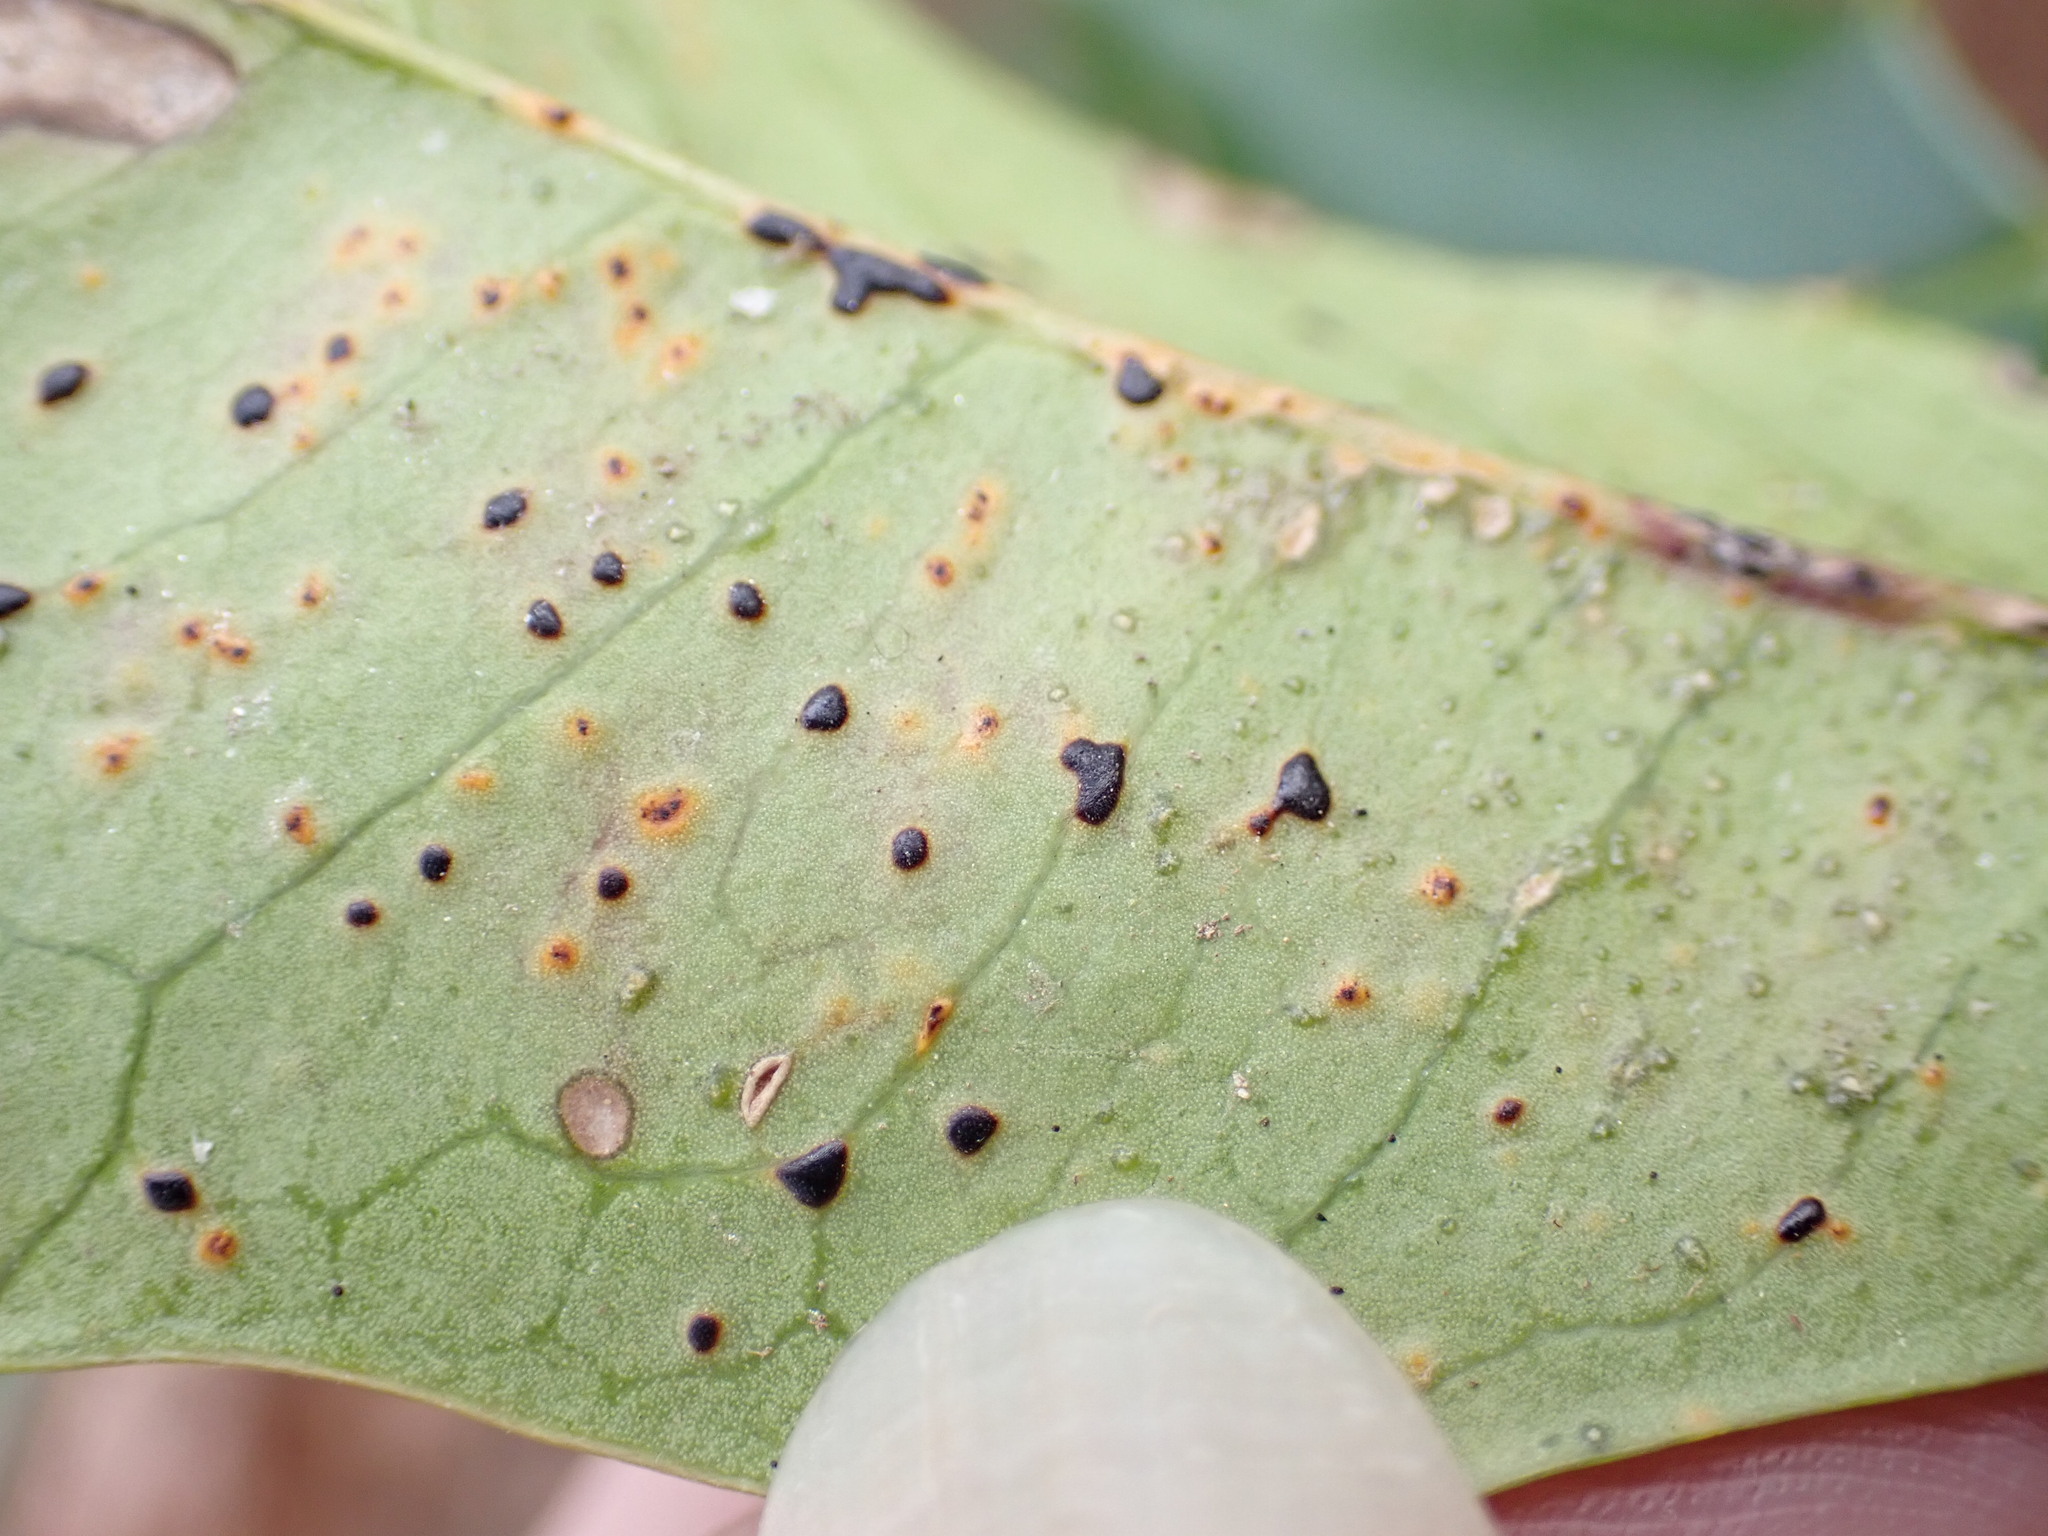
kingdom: Fungi
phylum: Ascomycota
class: Leotiomycetes
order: Rhytismatales
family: Rhytismataceae
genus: Macroderma
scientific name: Macroderma curtisii
